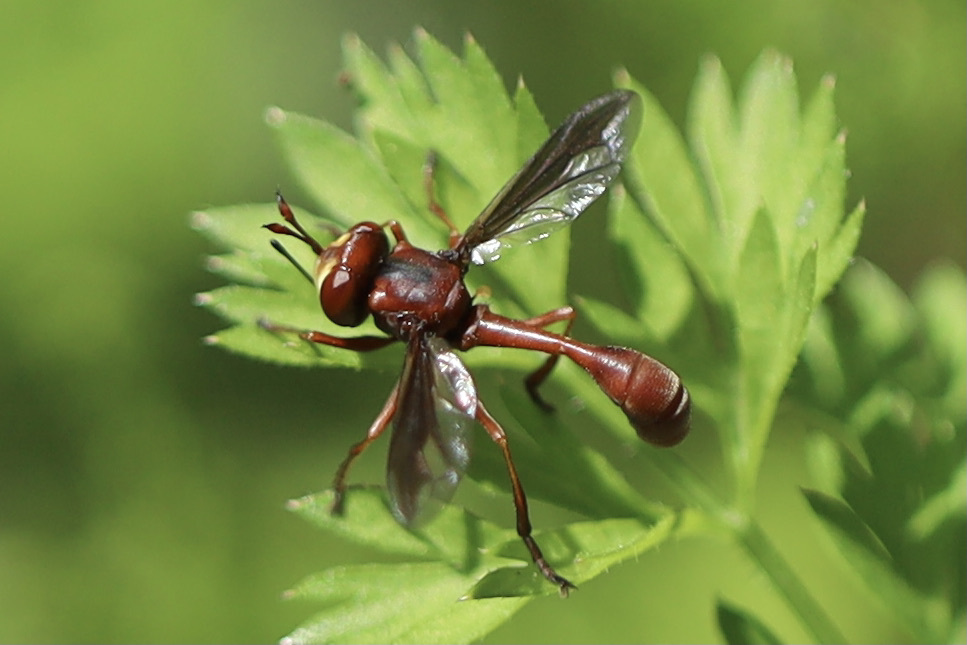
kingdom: Animalia
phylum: Arthropoda
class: Insecta
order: Diptera
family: Conopidae
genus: Physocephala
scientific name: Physocephala burgessi
